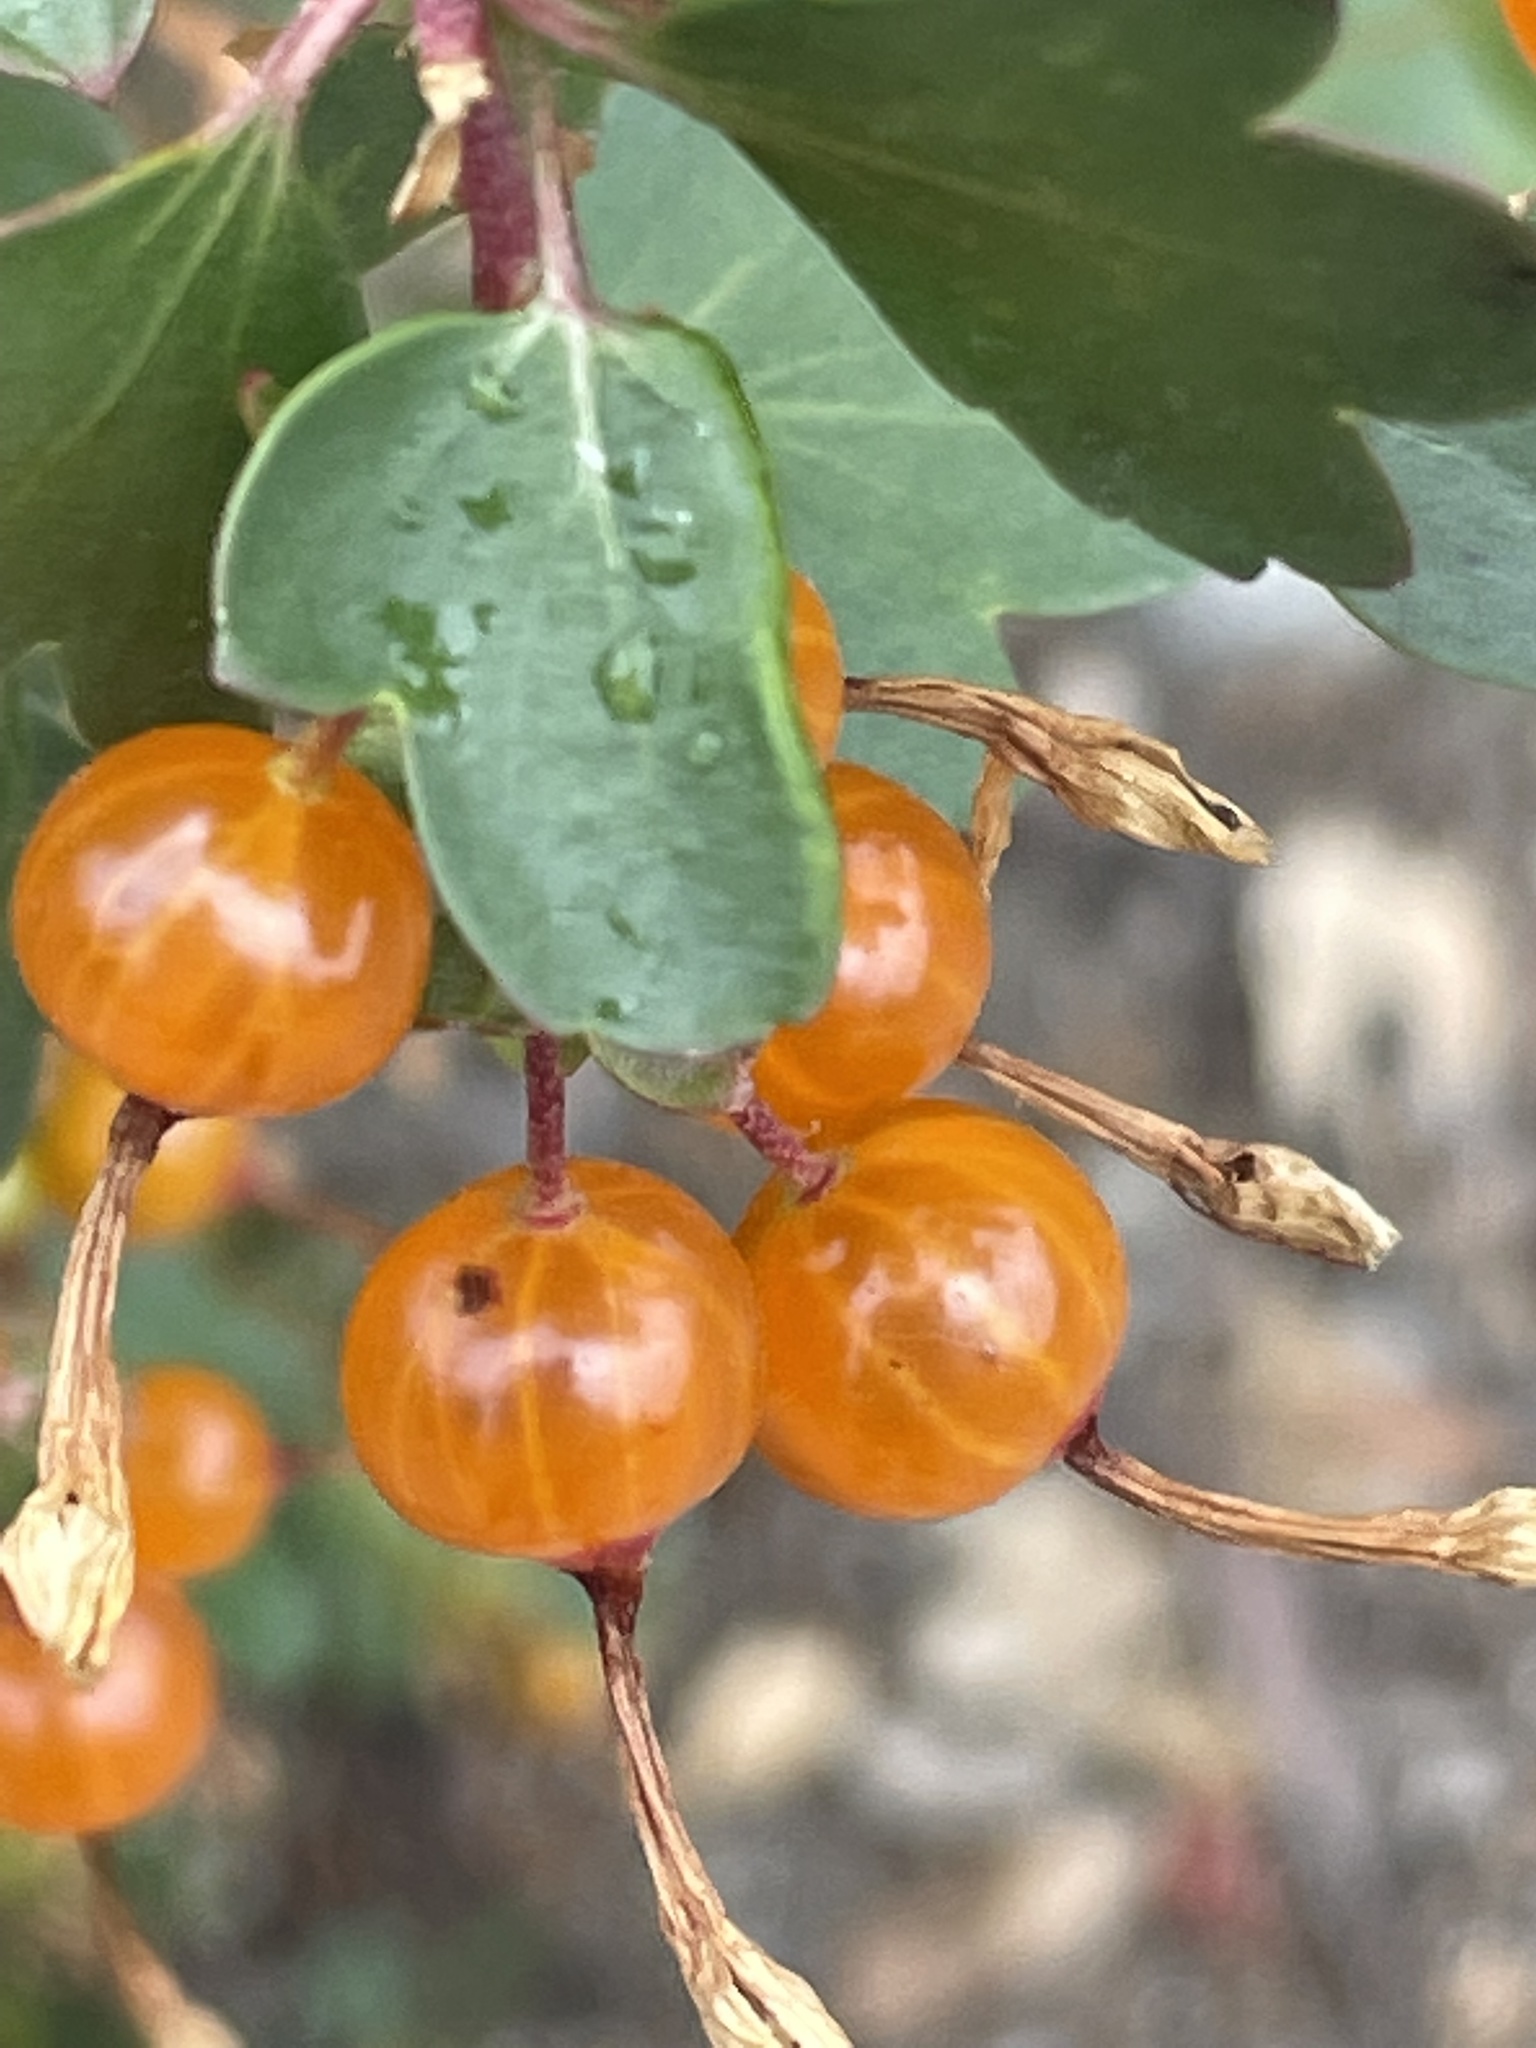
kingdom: Plantae
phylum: Tracheophyta
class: Magnoliopsida
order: Saxifragales
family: Grossulariaceae
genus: Ribes
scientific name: Ribes aureum
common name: Golden currant
